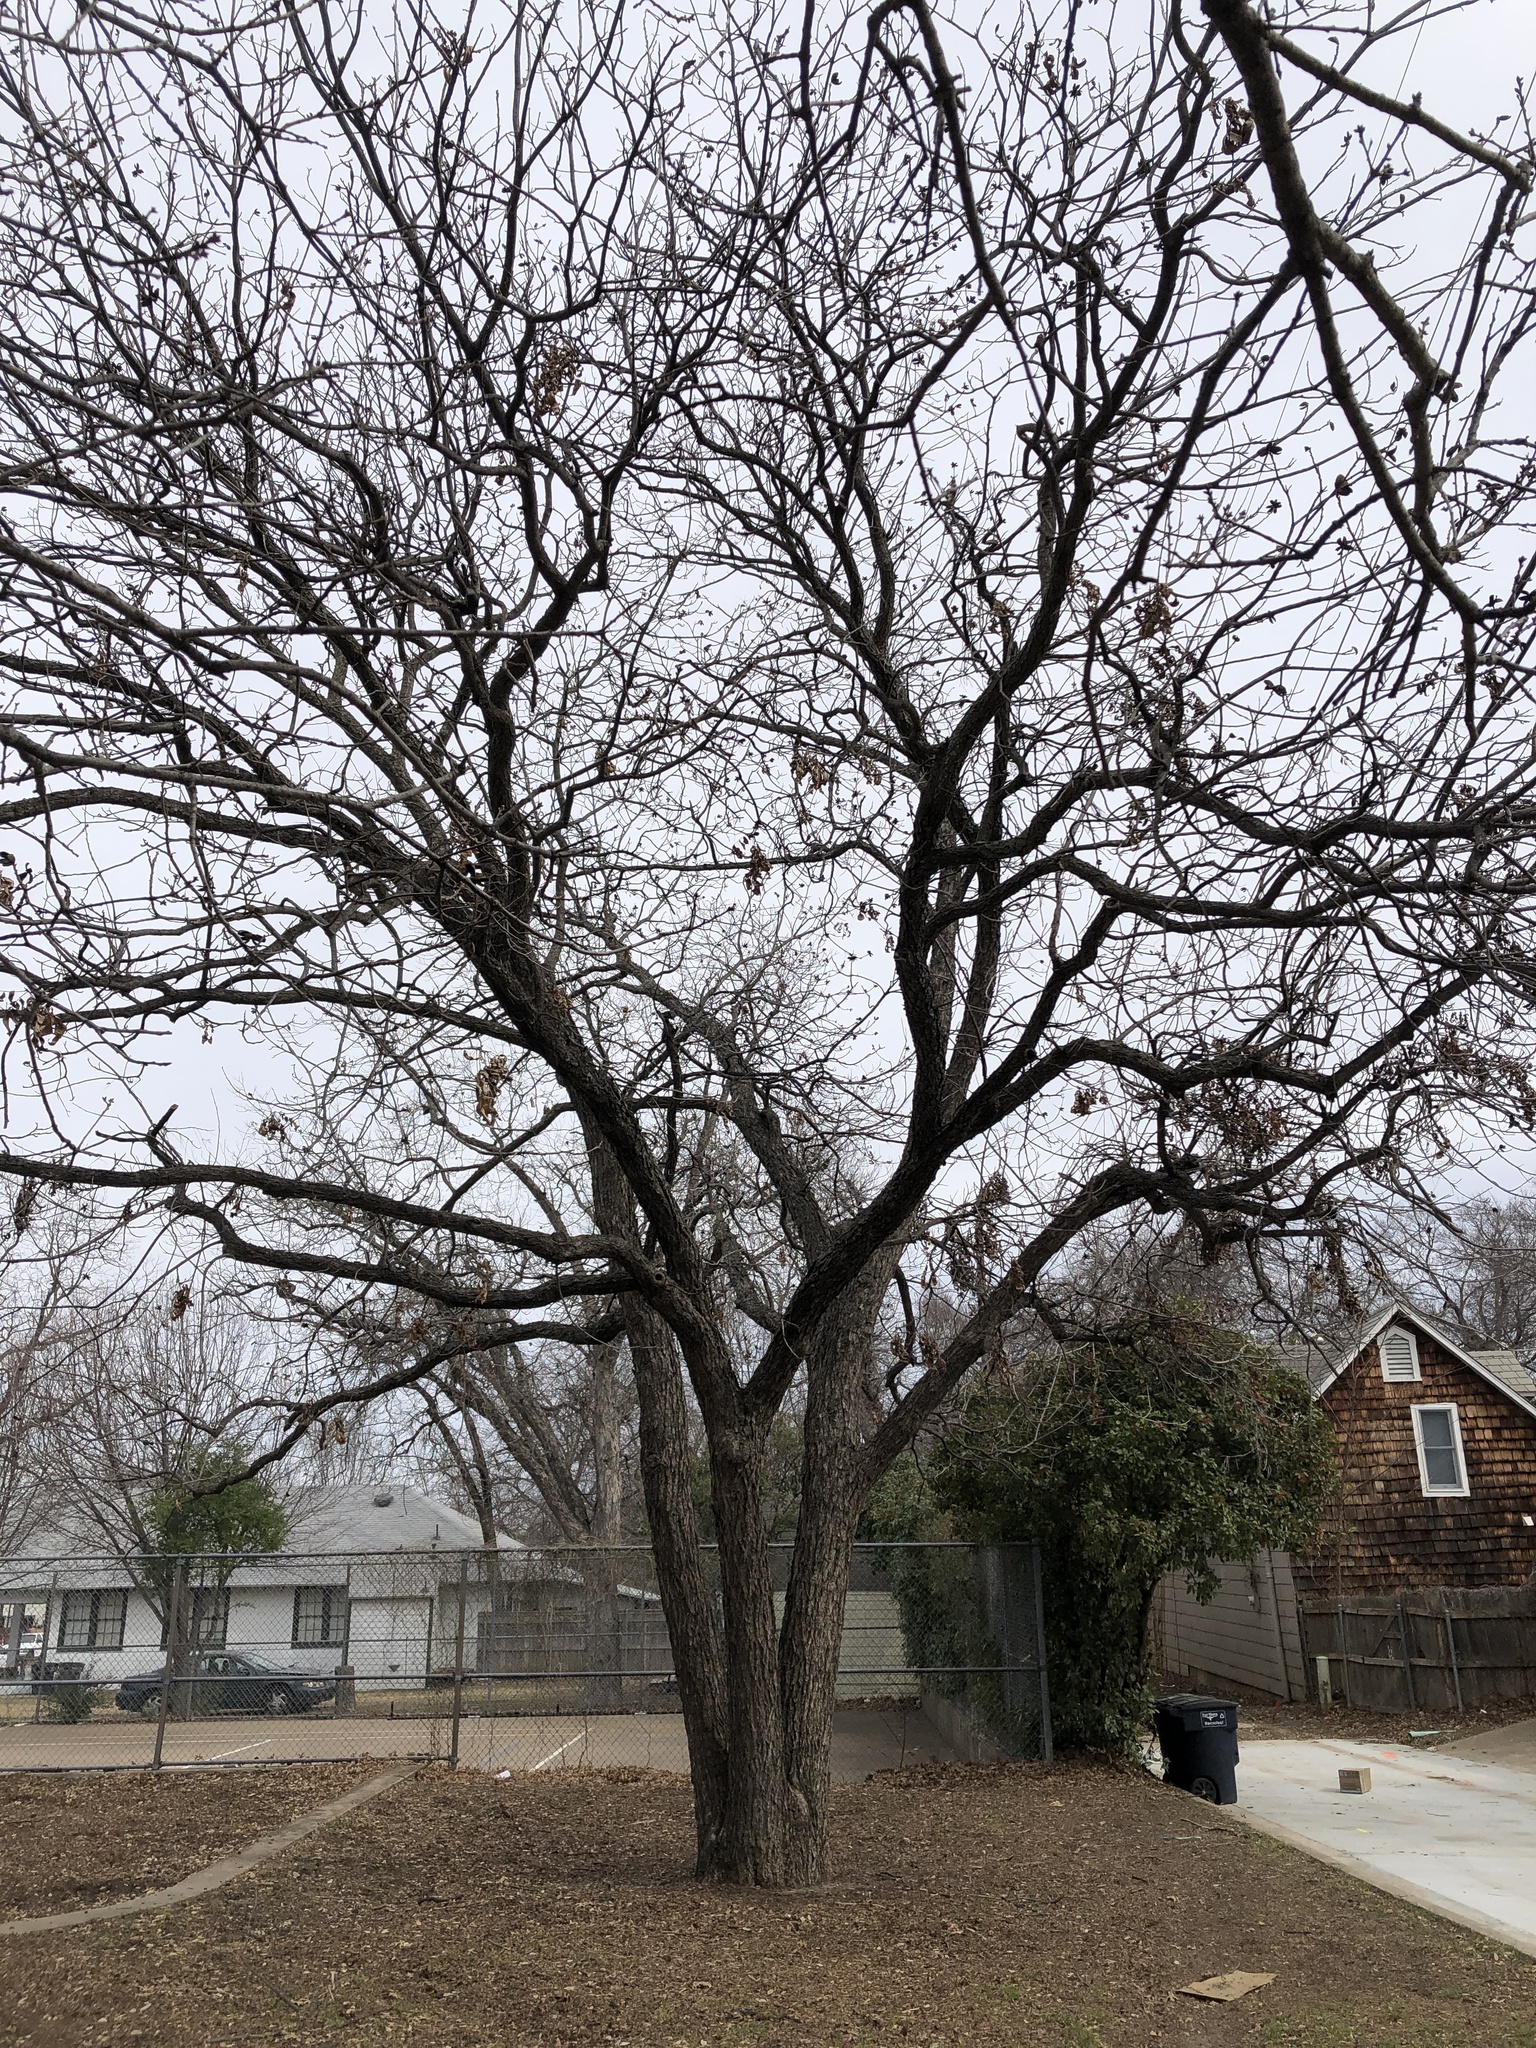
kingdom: Plantae
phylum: Tracheophyta
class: Magnoliopsida
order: Fagales
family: Juglandaceae
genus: Carya
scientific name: Carya illinoinensis
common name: Pecan
